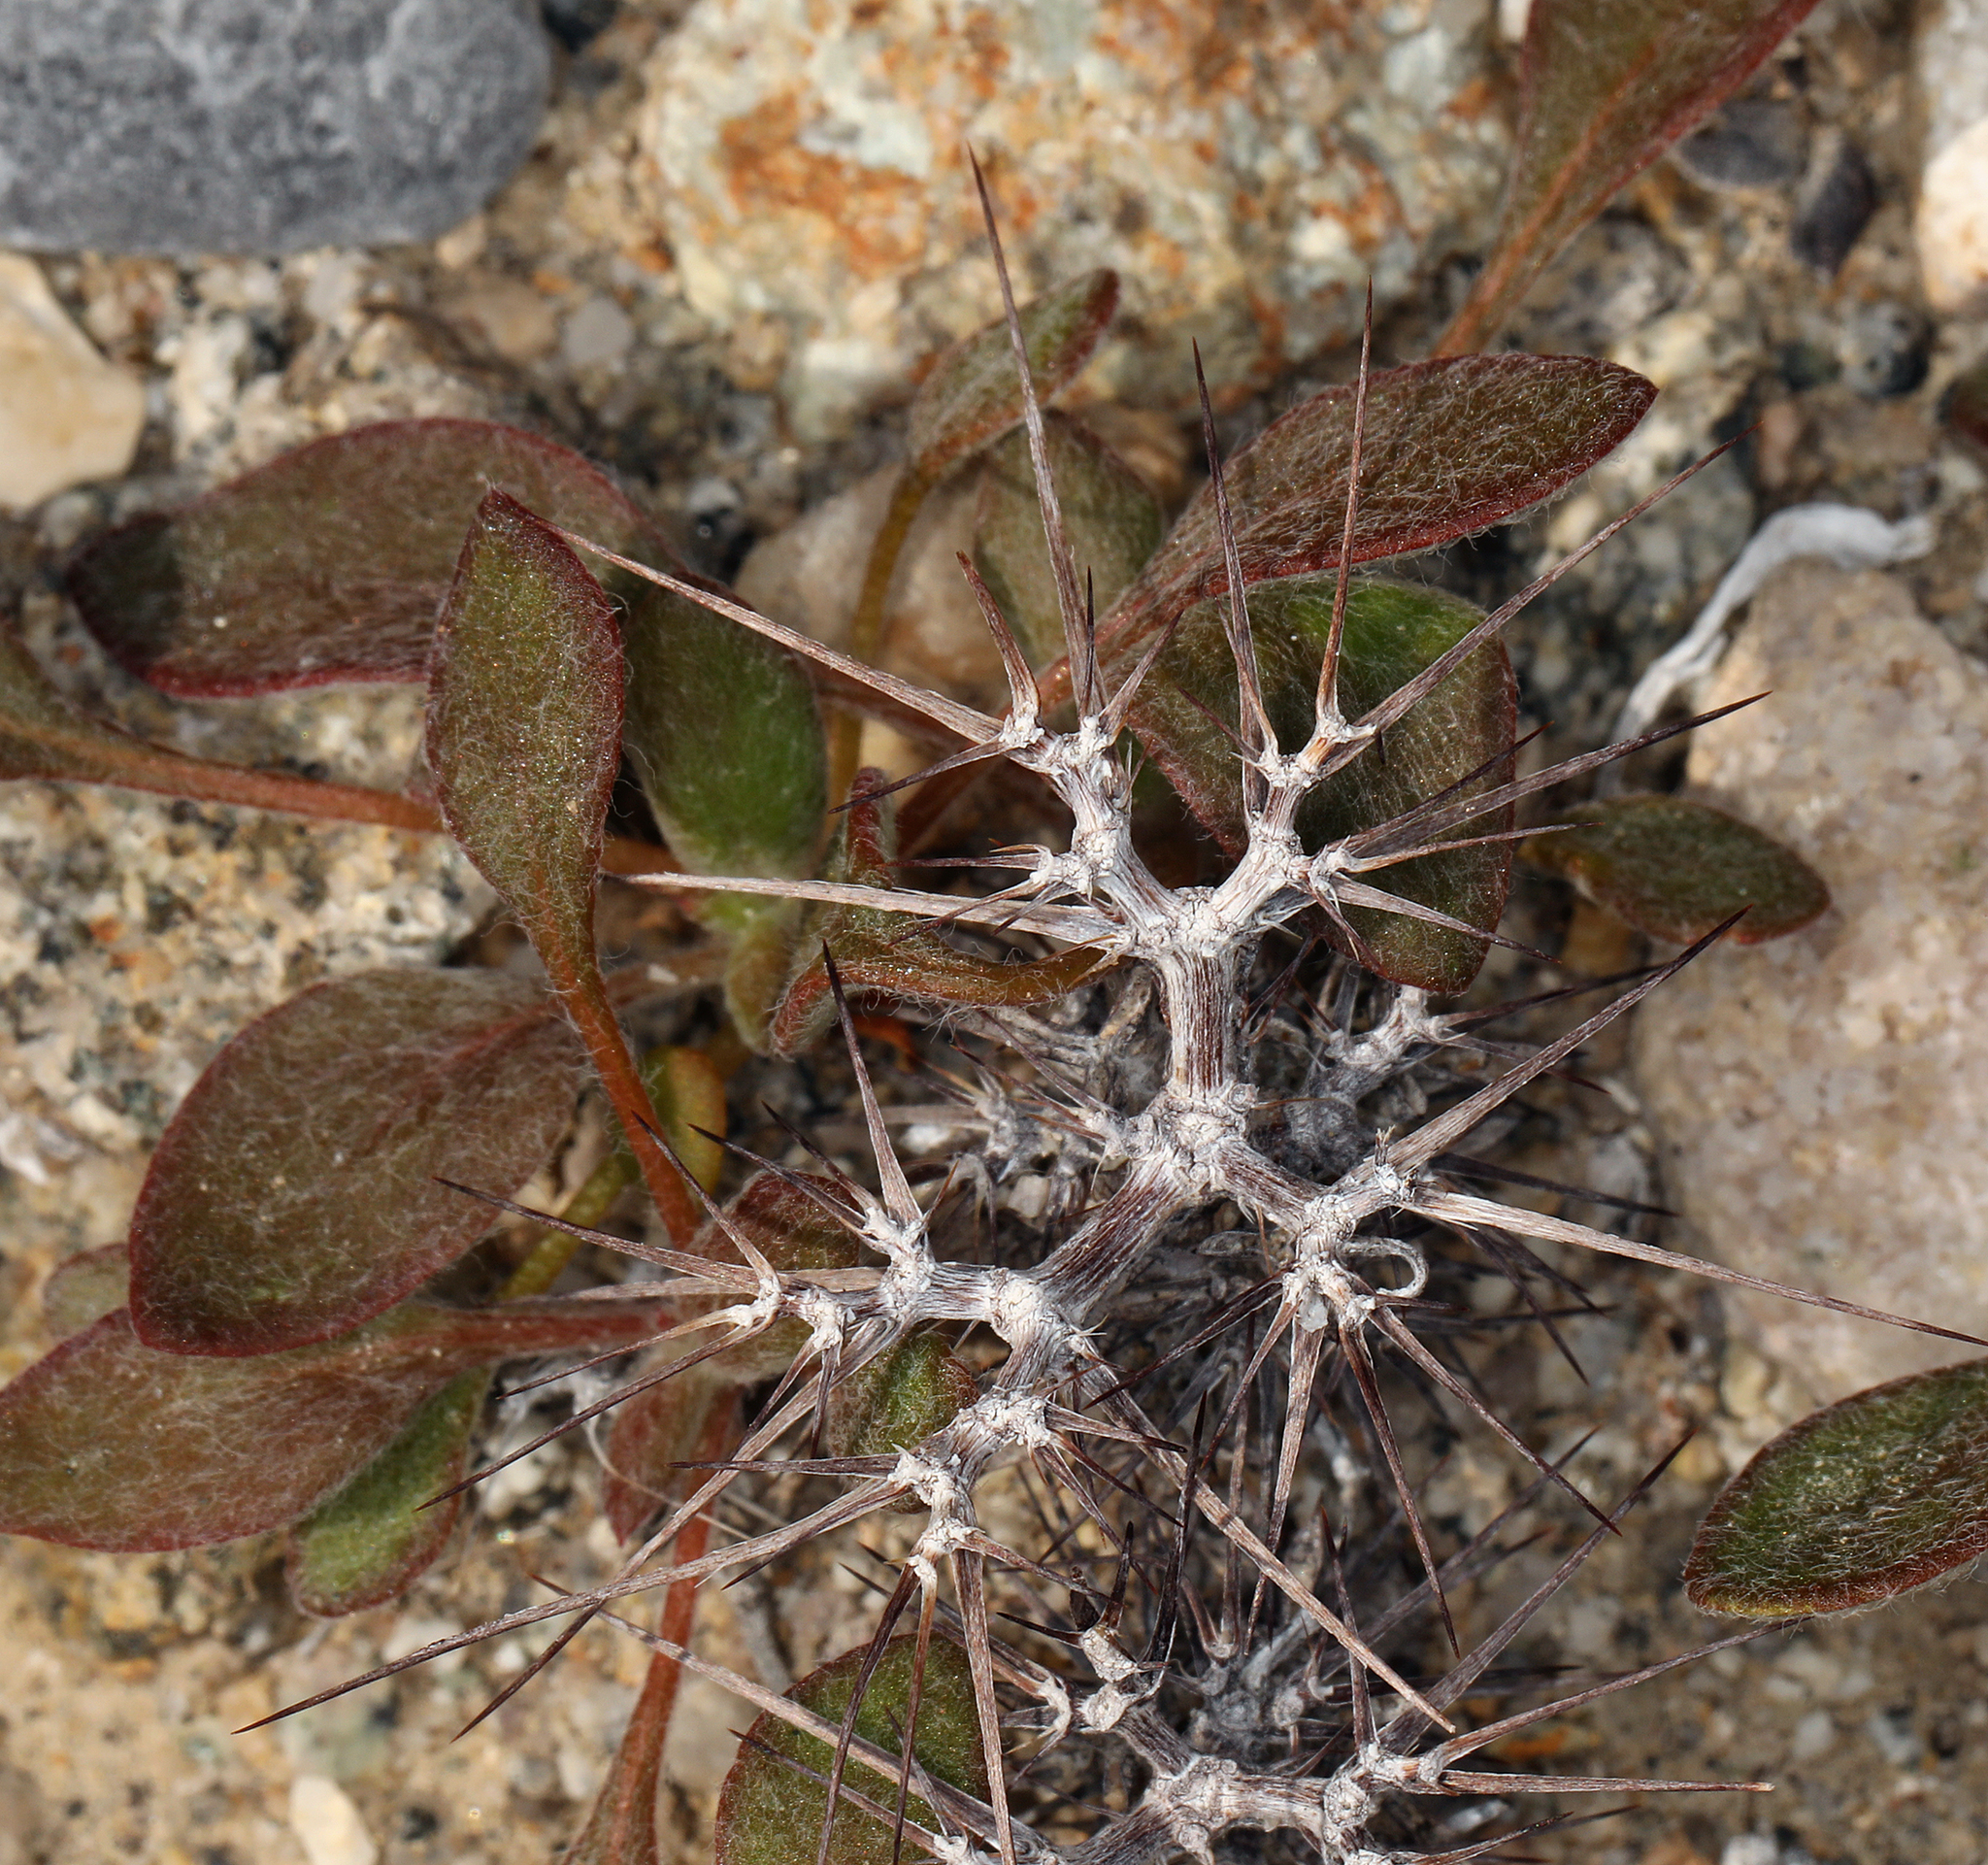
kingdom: Plantae
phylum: Tracheophyta
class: Magnoliopsida
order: Caryophyllales
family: Polygonaceae
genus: Chorizanthe
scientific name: Chorizanthe rigida
